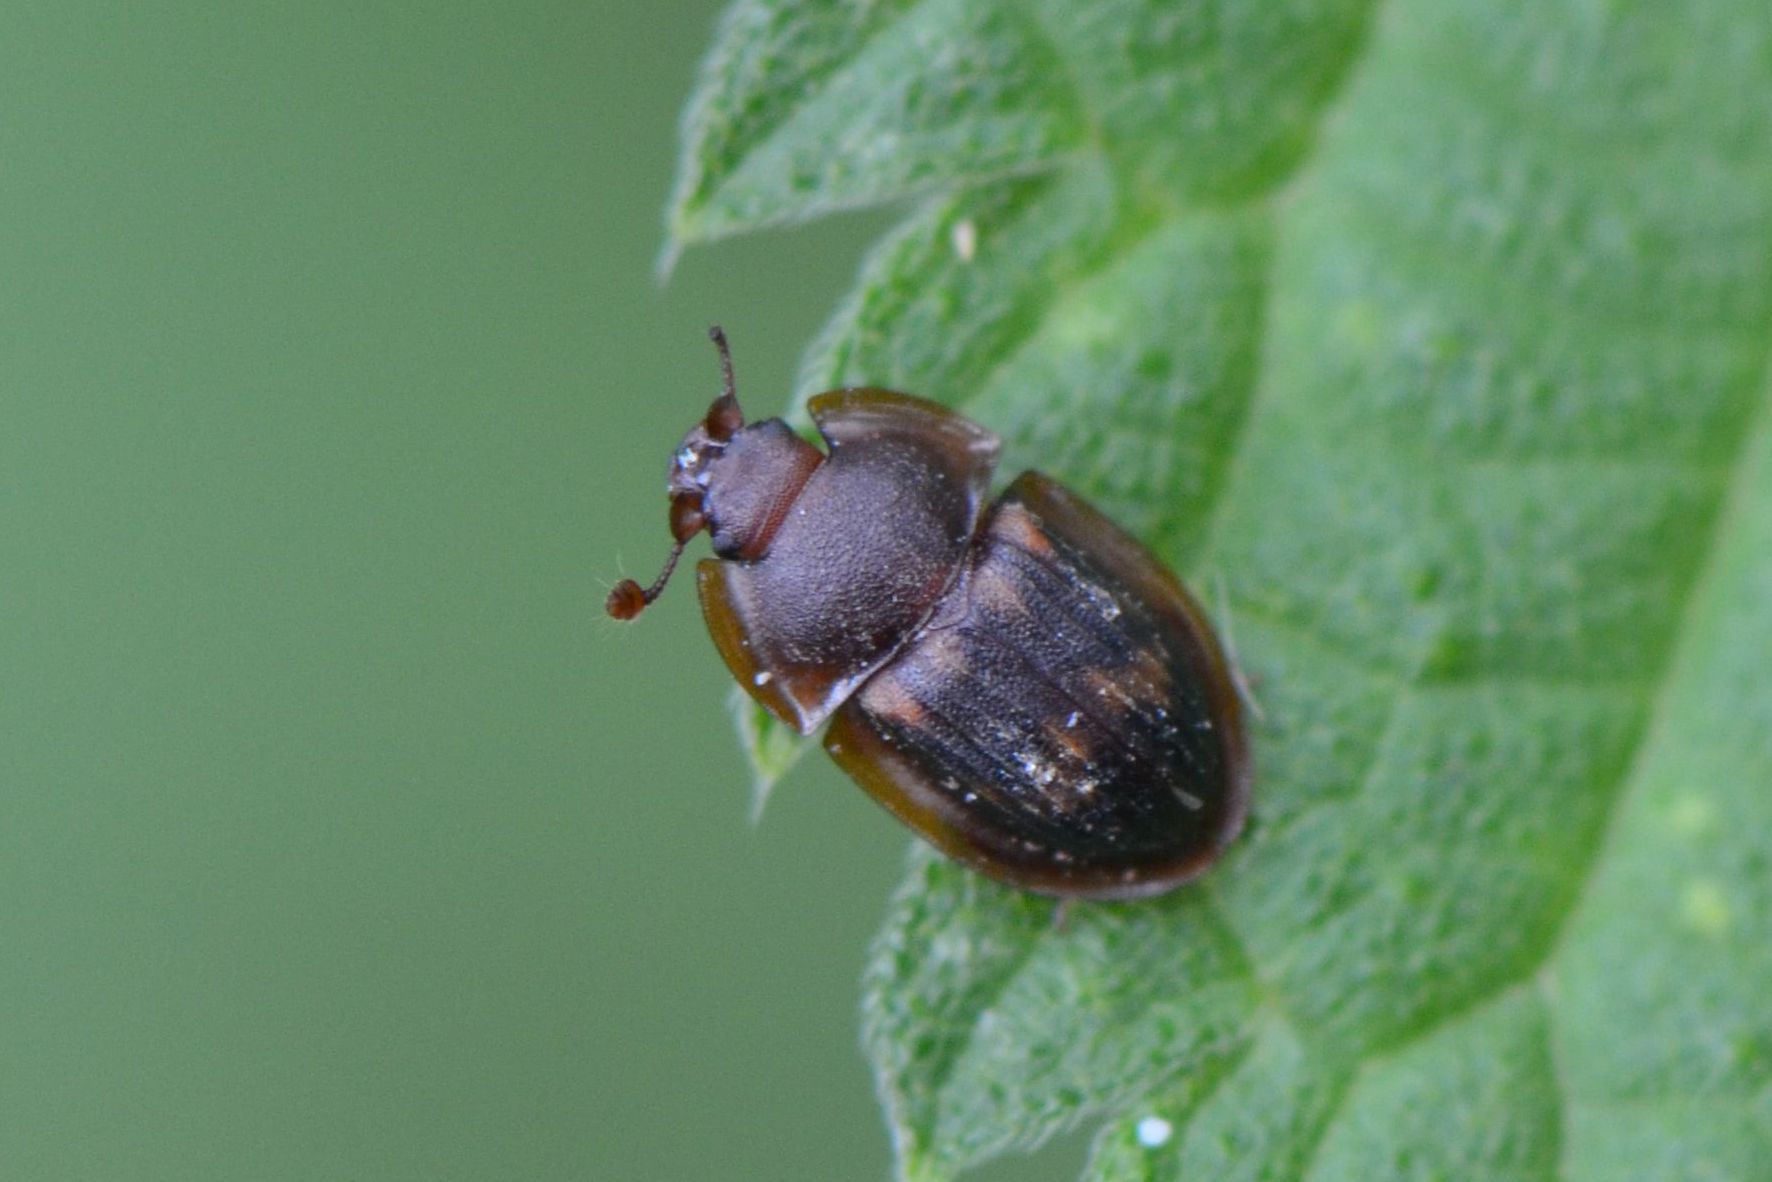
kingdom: Animalia
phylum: Arthropoda
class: Insecta
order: Coleoptera
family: Nitidulidae
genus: Amphotis
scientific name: Amphotis marginata
